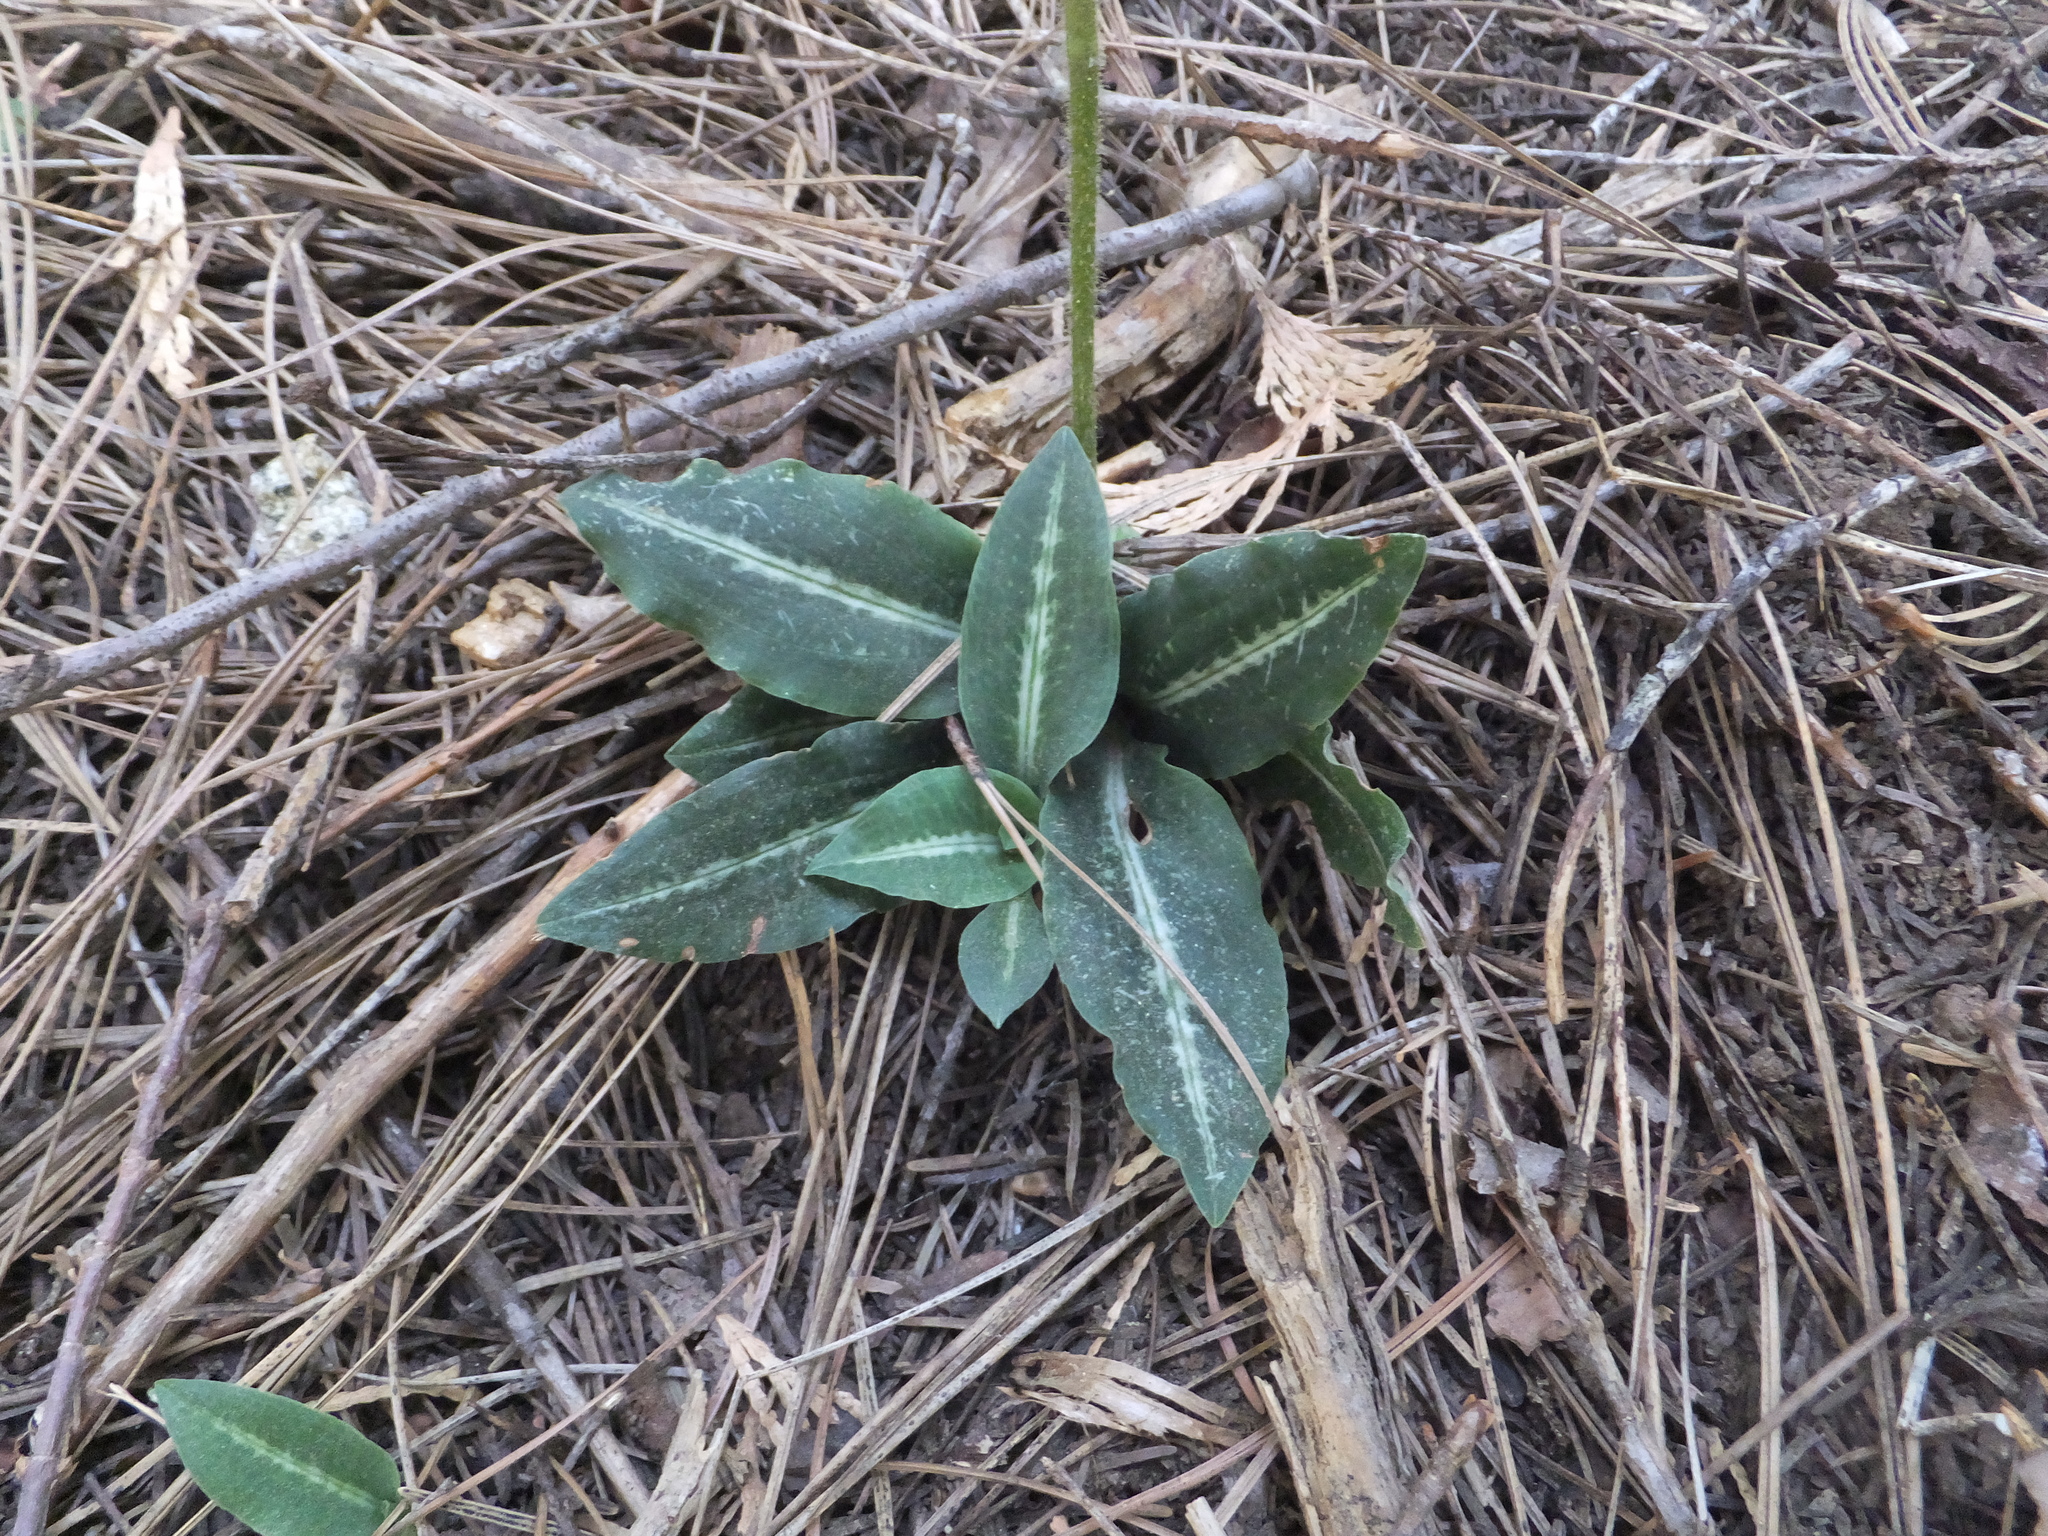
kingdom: Plantae
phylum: Tracheophyta
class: Liliopsida
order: Asparagales
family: Orchidaceae
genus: Goodyera
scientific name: Goodyera oblongifolia
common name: Giant rattlesnake-plantain
